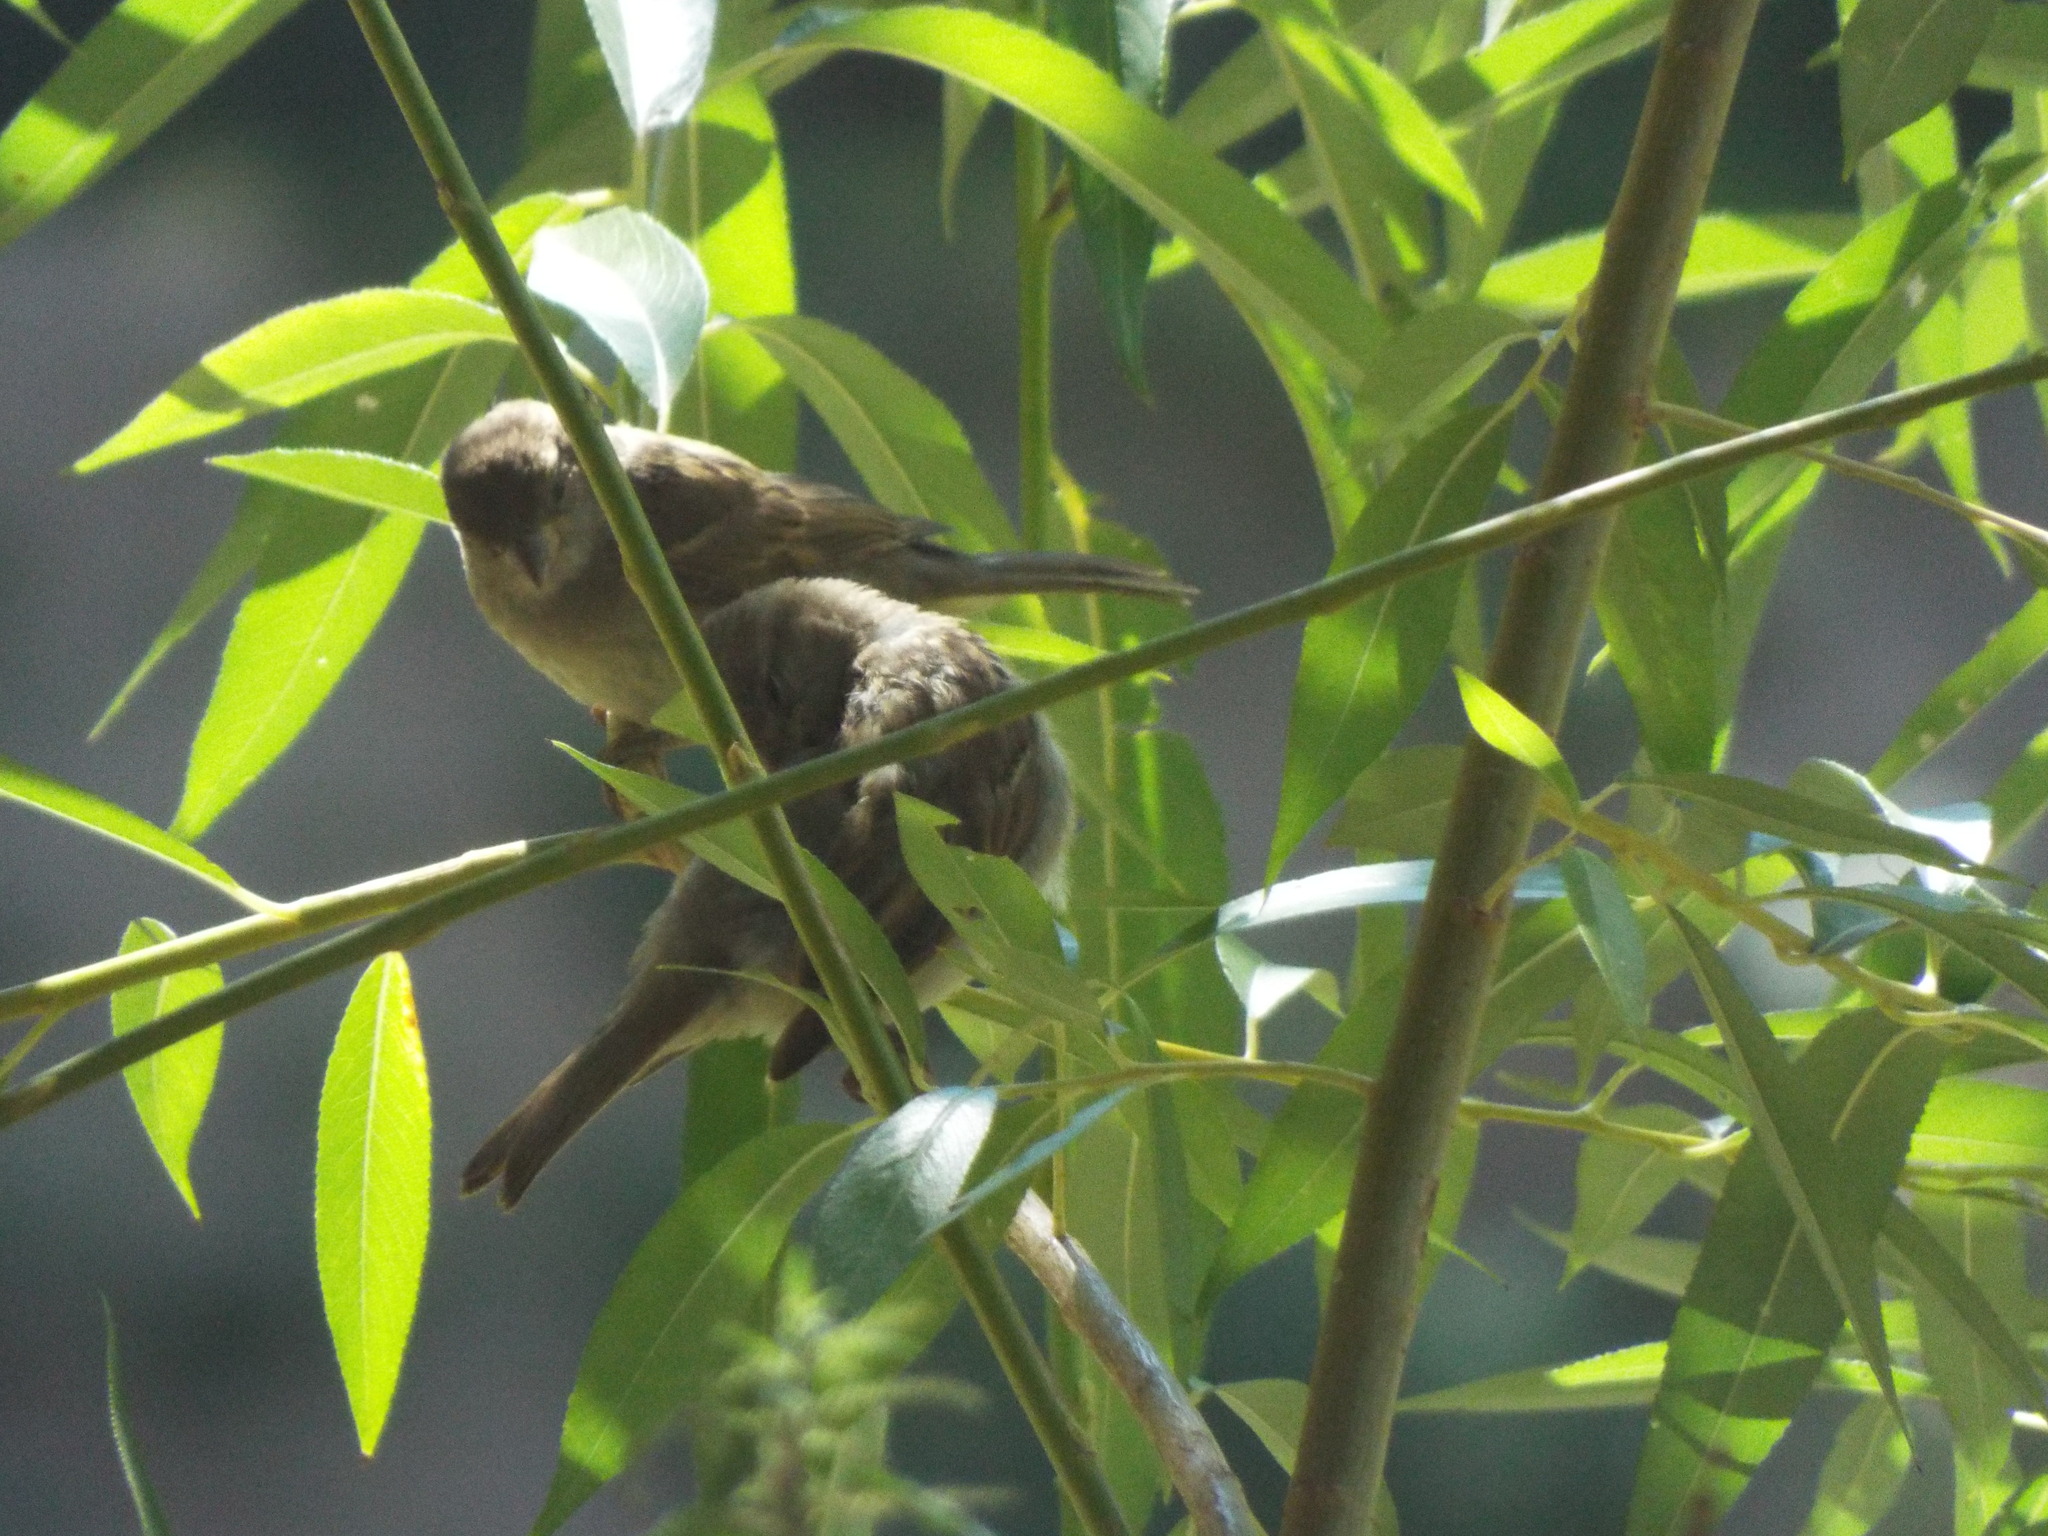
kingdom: Animalia
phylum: Chordata
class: Aves
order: Passeriformes
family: Passeridae
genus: Passer
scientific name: Passer domesticus
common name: House sparrow
